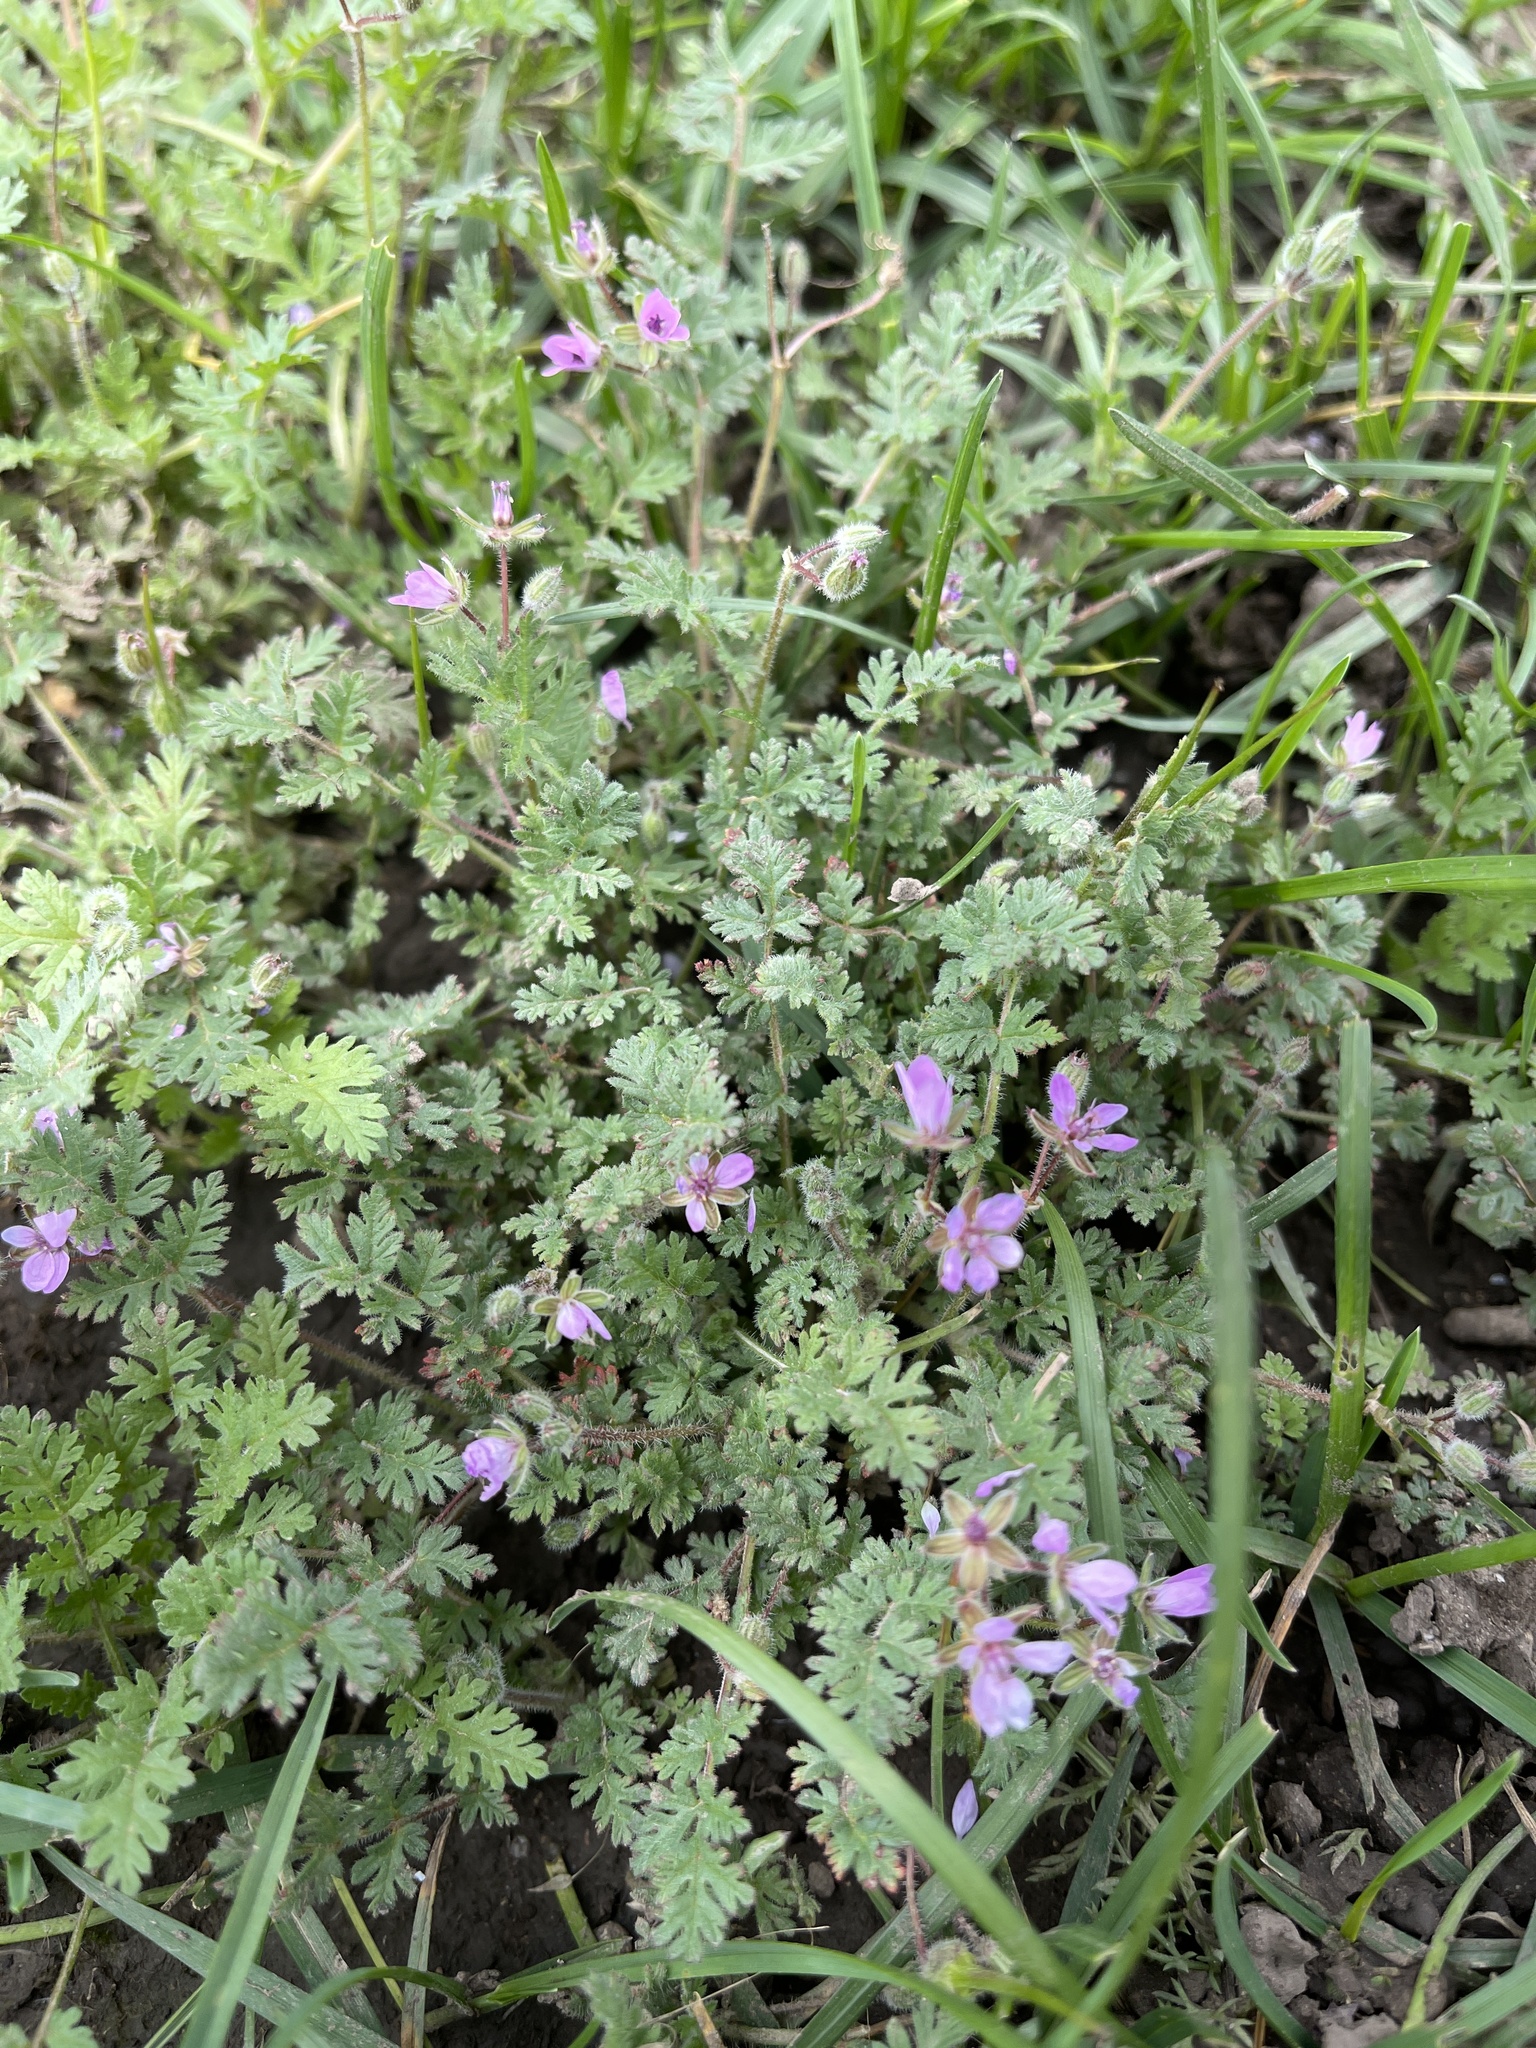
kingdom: Plantae
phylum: Tracheophyta
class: Magnoliopsida
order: Geraniales
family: Geraniaceae
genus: Erodium
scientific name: Erodium cicutarium
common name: Common stork's-bill
